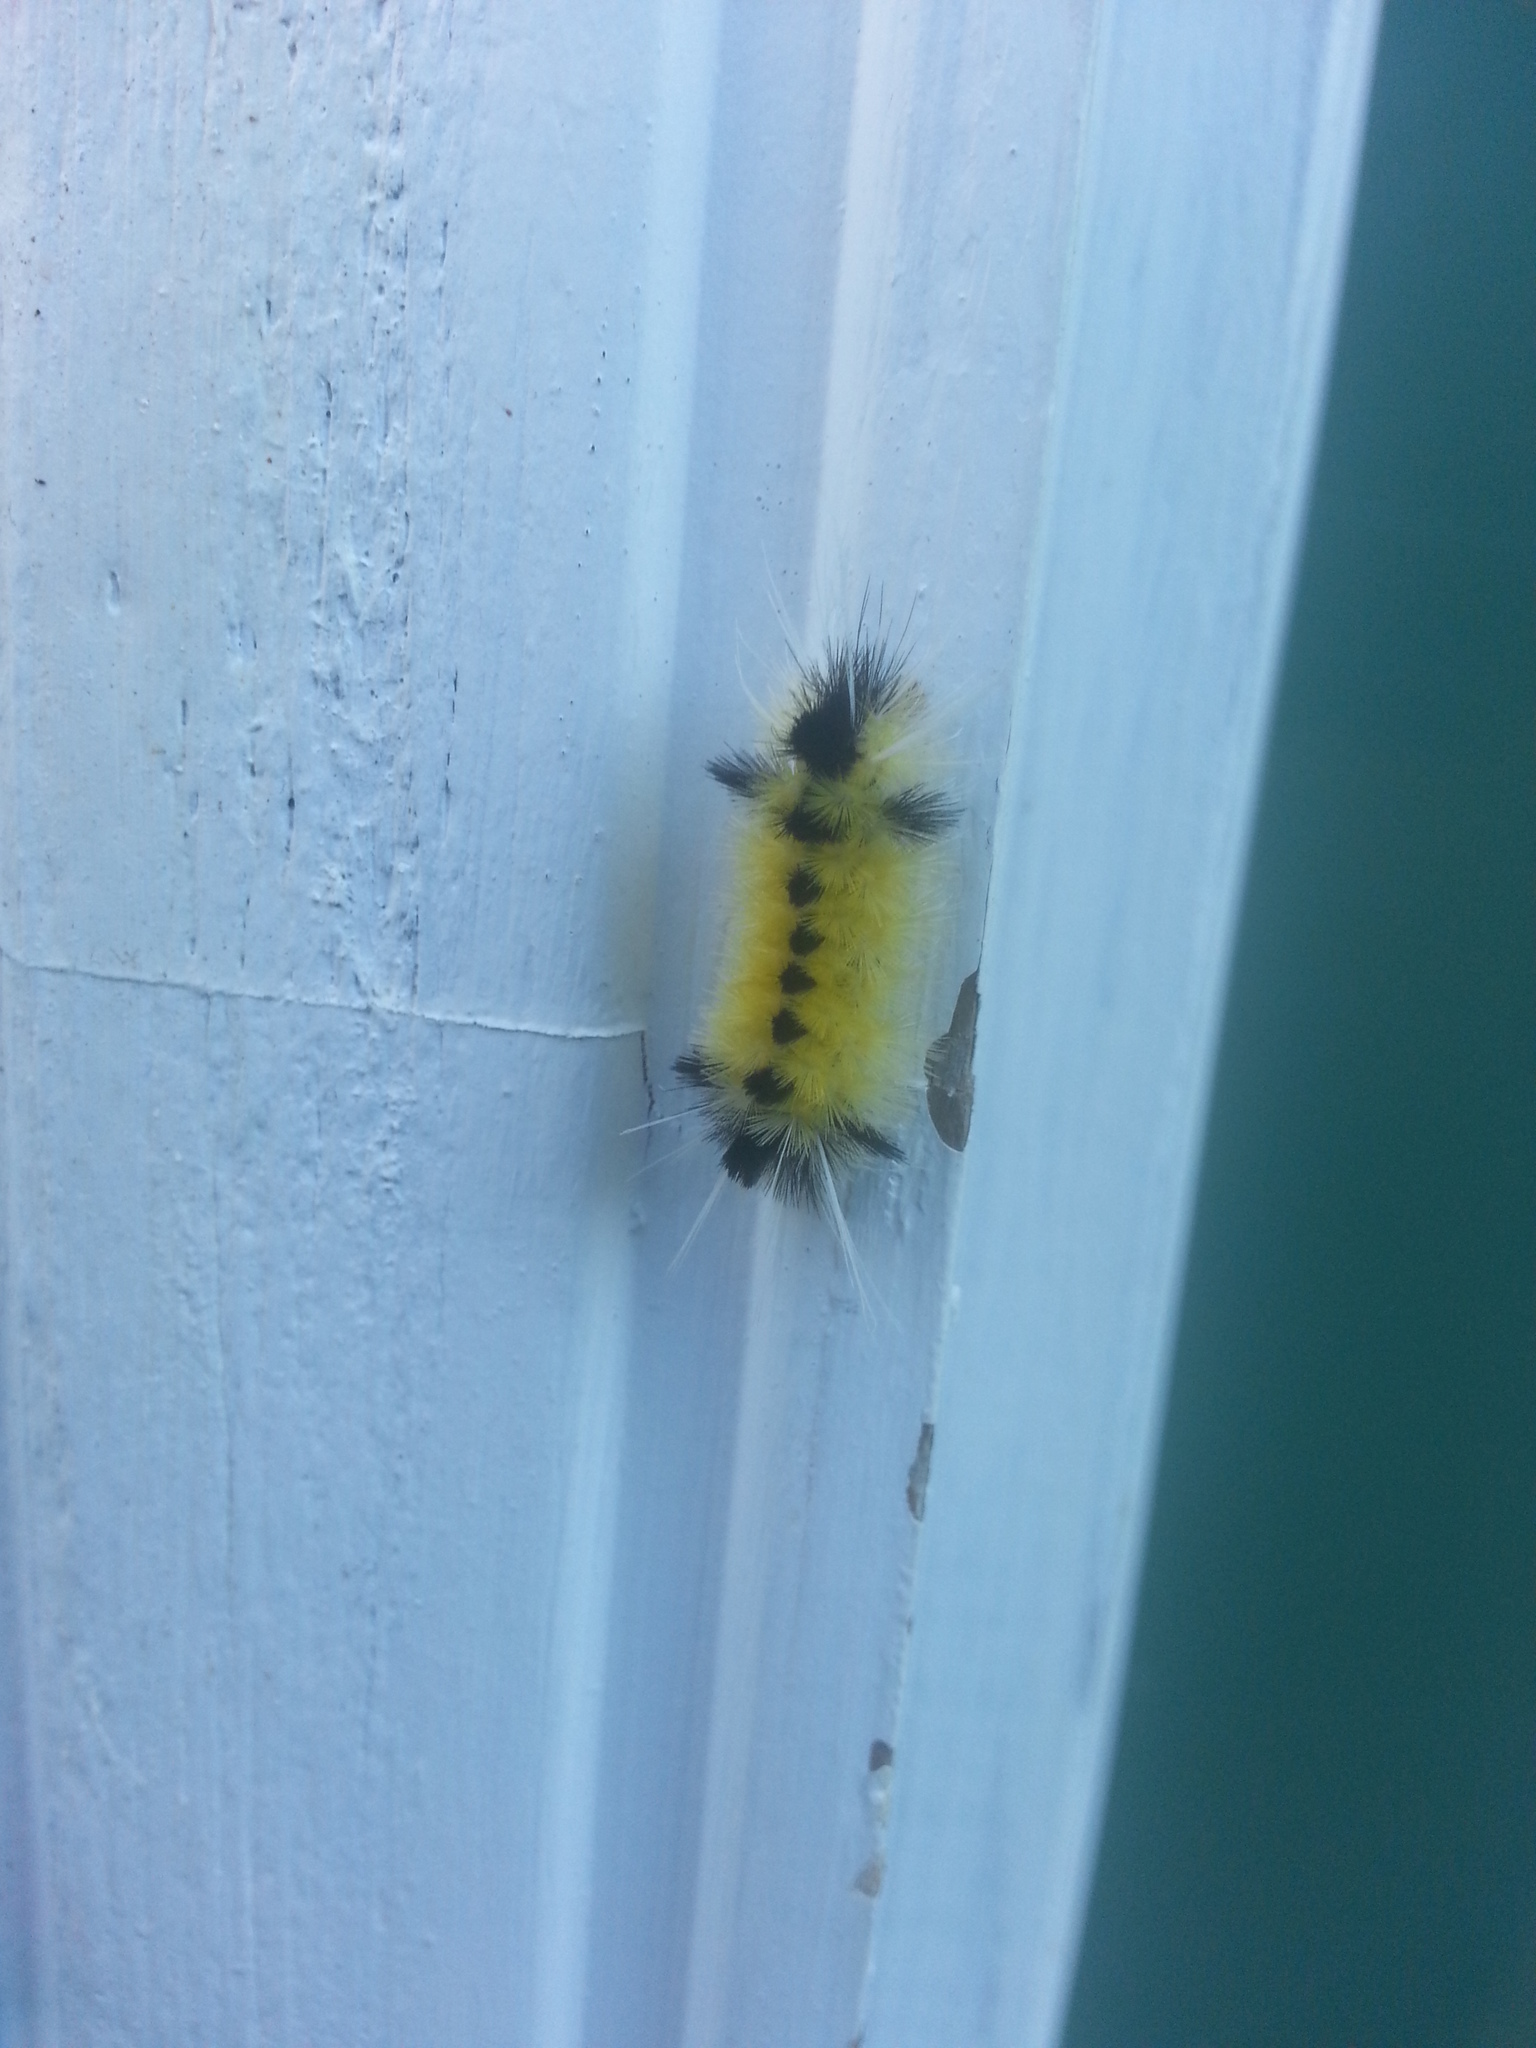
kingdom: Animalia
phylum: Arthropoda
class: Insecta
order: Lepidoptera
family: Erebidae
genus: Lophocampa
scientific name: Lophocampa maculata
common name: Spotted tussock moth
